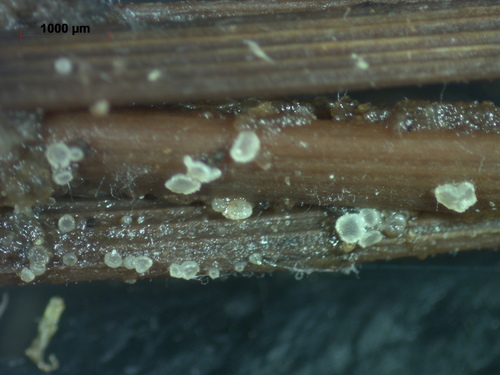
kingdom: Fungi
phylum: Ascomycota
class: Leotiomycetes
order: Helotiales
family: Hyaloscyphaceae
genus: Hyaloscypha
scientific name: Hyaloscypha
